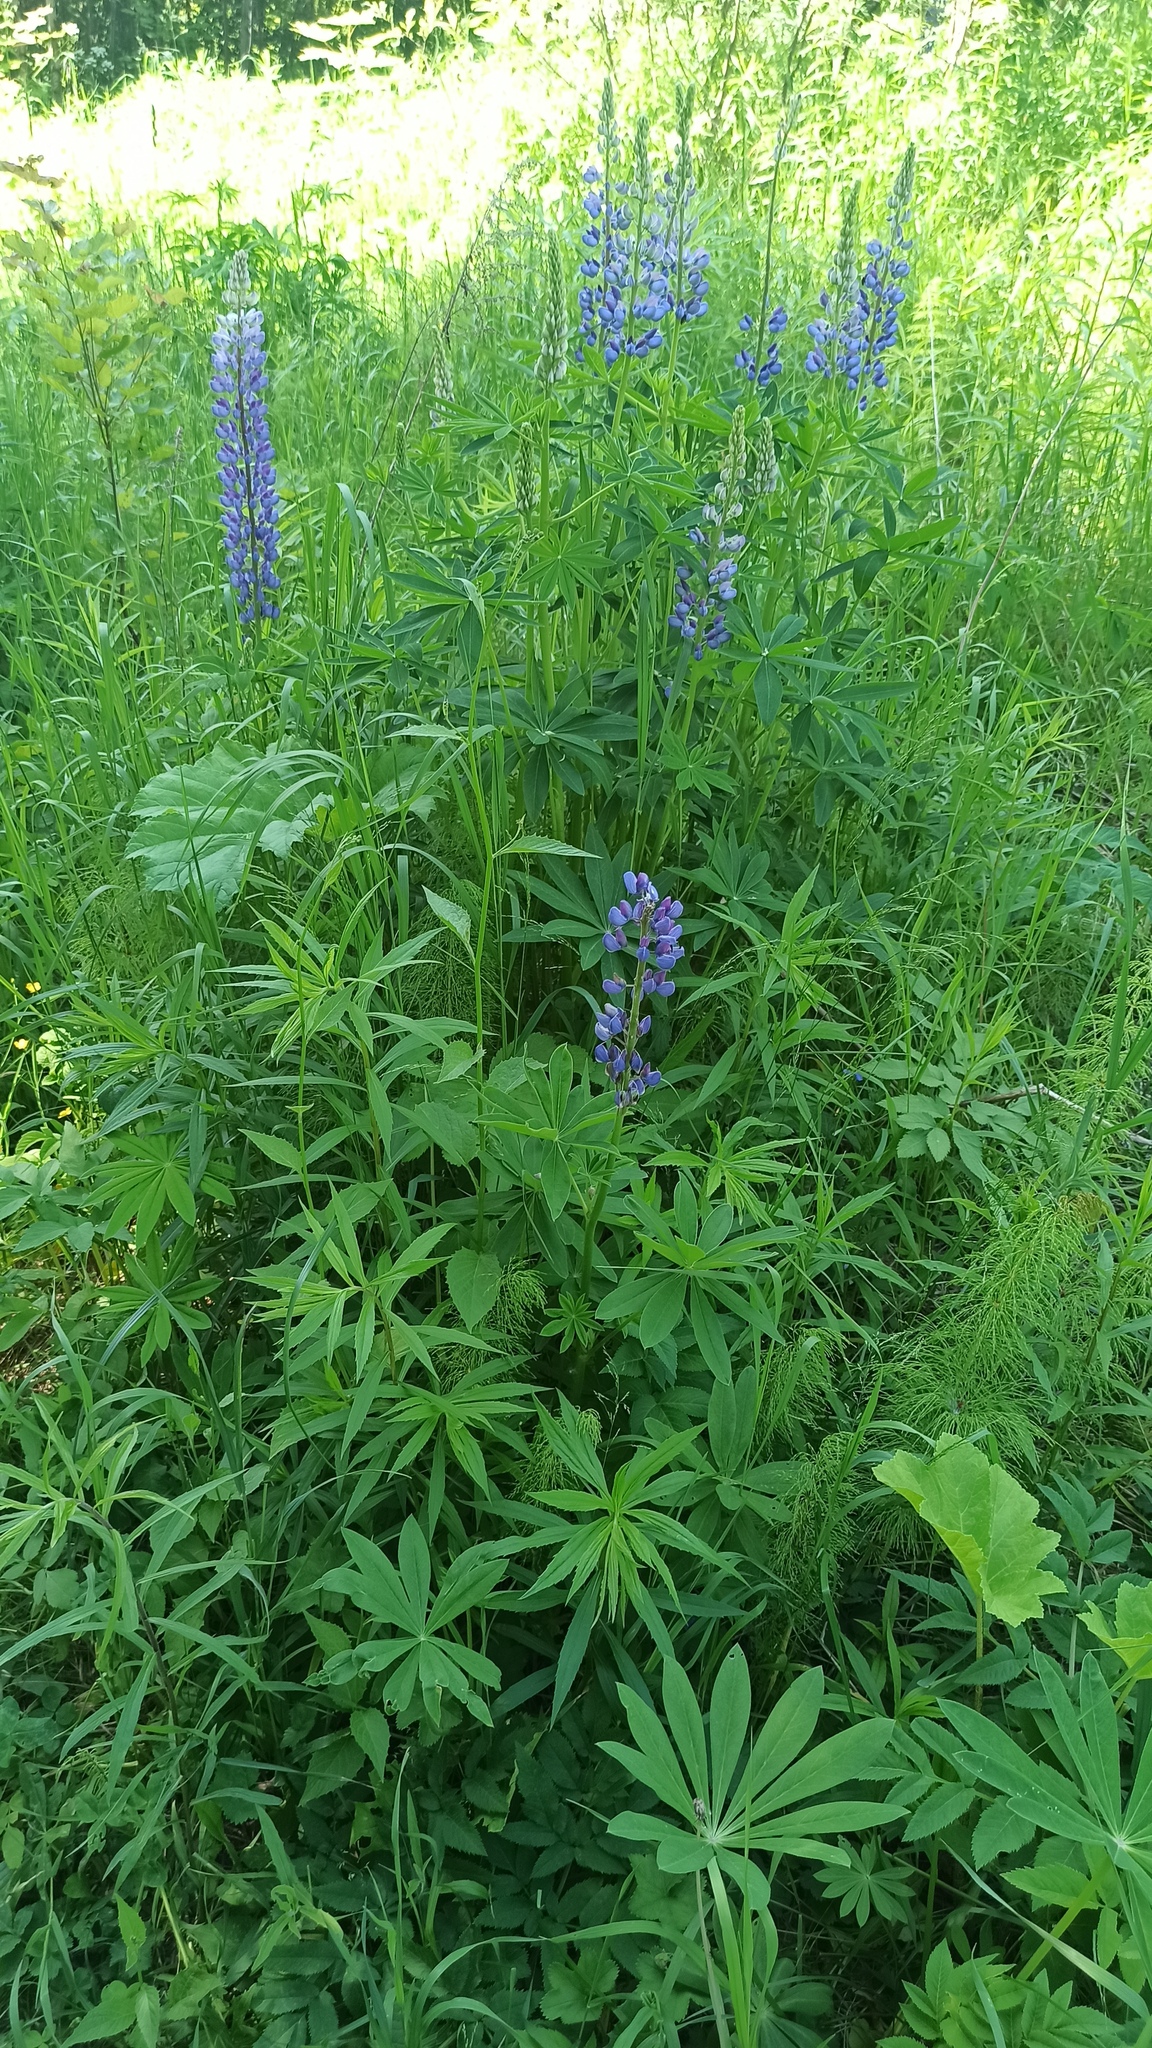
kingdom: Plantae
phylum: Tracheophyta
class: Magnoliopsida
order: Fabales
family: Fabaceae
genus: Lupinus
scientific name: Lupinus polyphyllus
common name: Garden lupin
